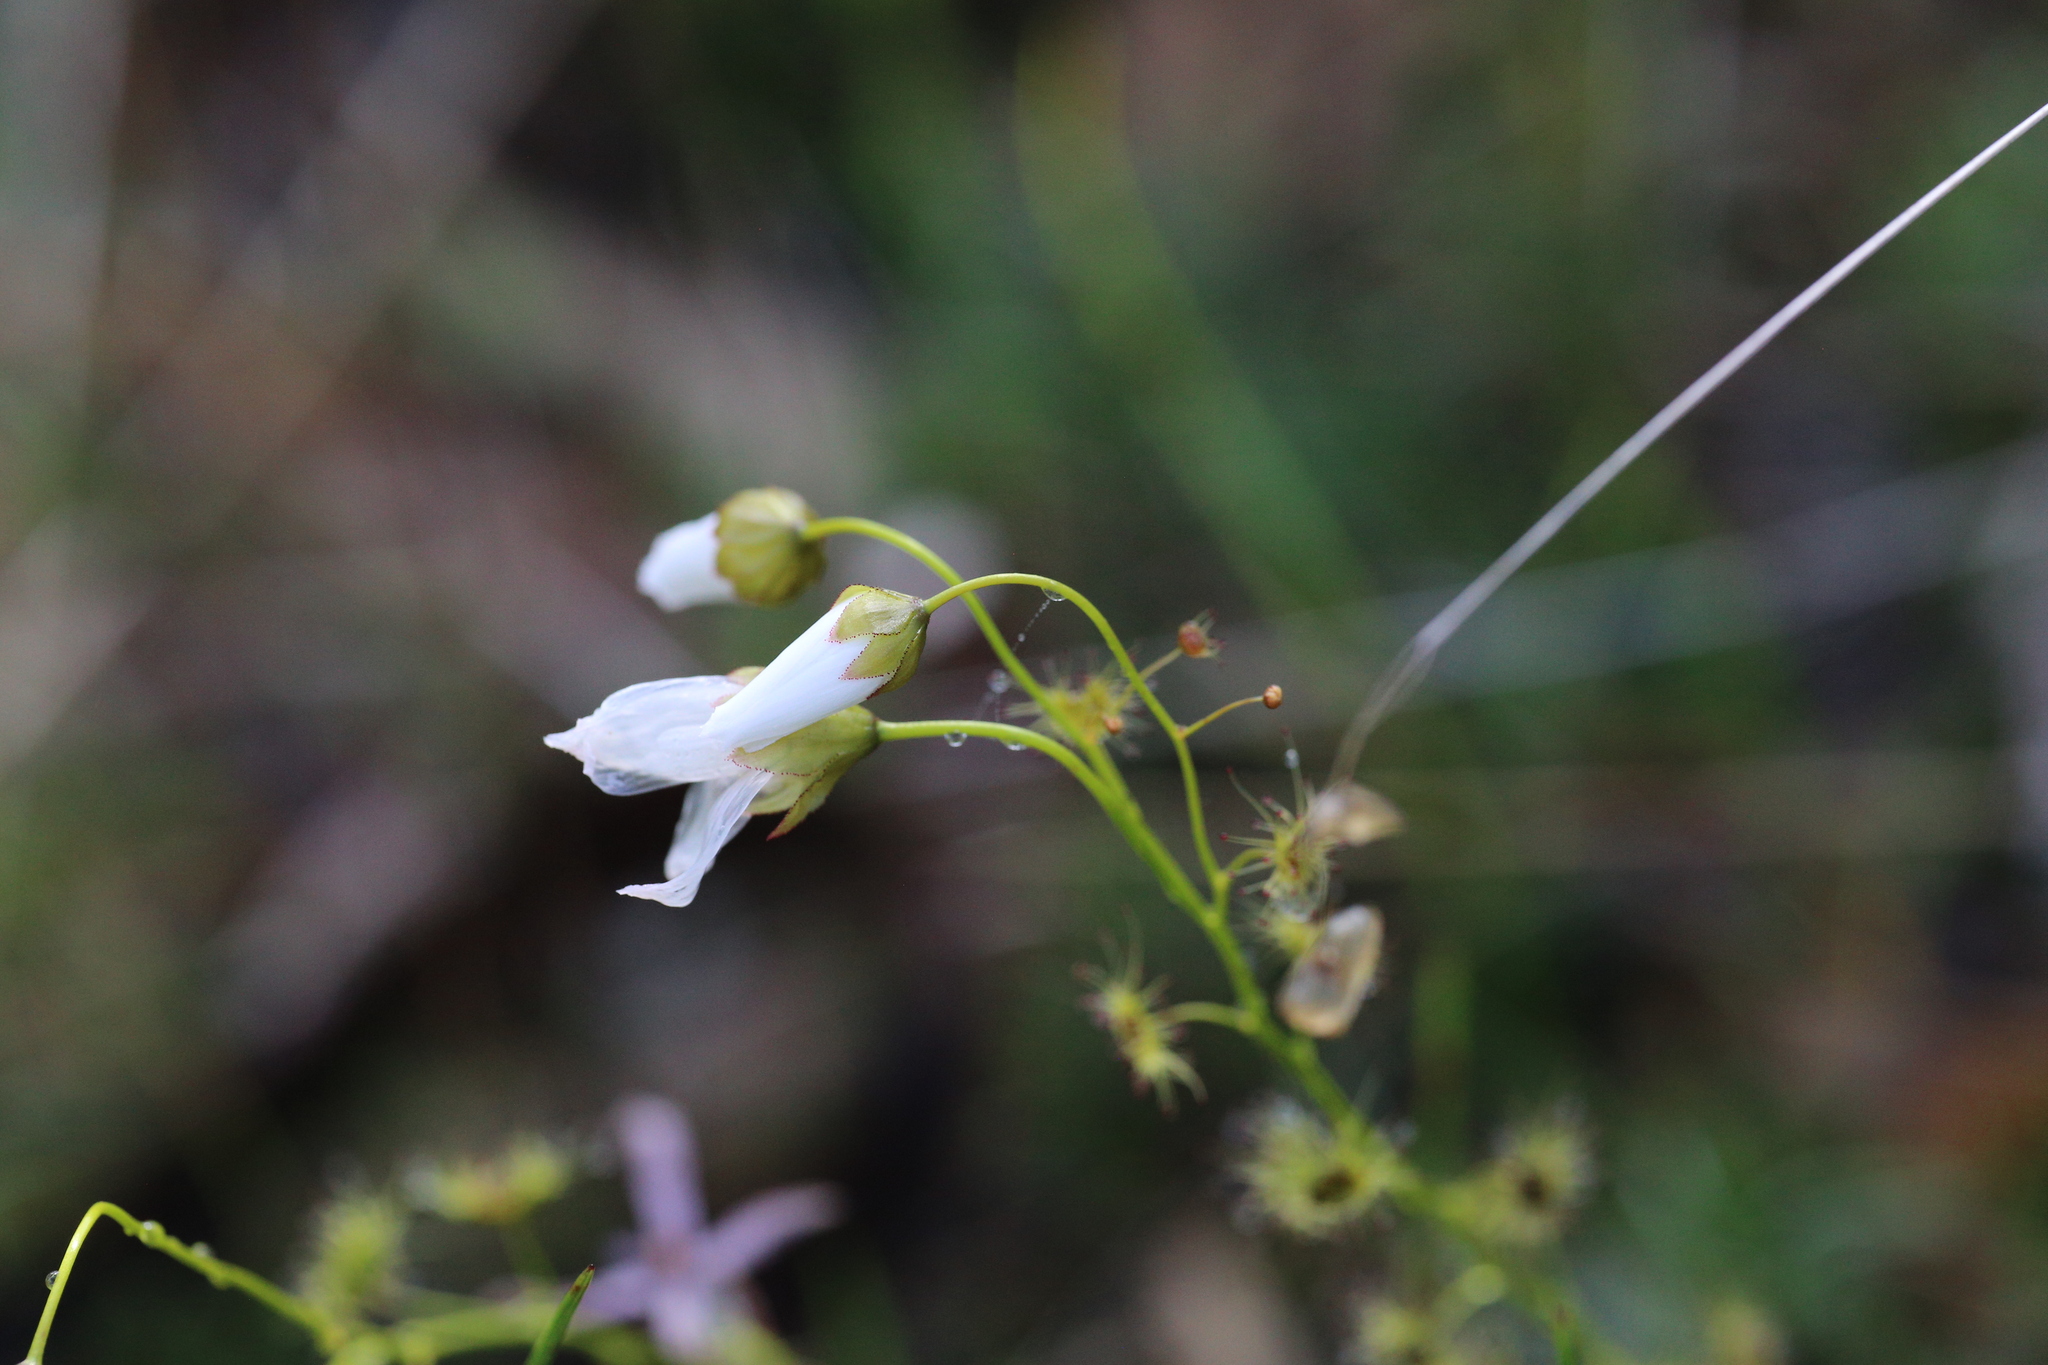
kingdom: Plantae
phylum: Tracheophyta
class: Magnoliopsida
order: Caryophyllales
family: Droseraceae
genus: Drosera
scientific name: Drosera heterophylla
